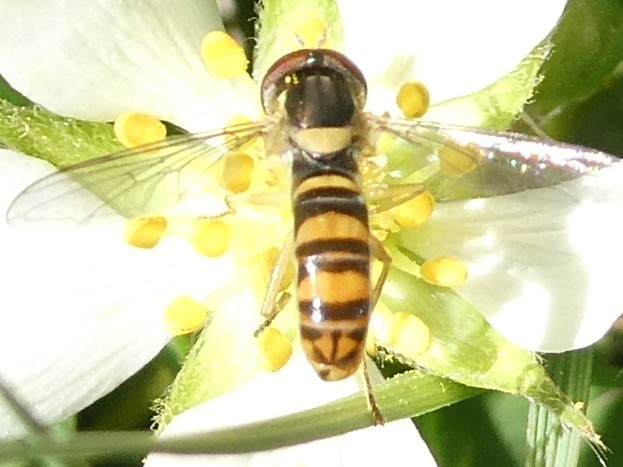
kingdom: Animalia
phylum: Arthropoda
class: Insecta
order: Diptera
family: Syrphidae
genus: Sphaerophoria
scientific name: Sphaerophoria
